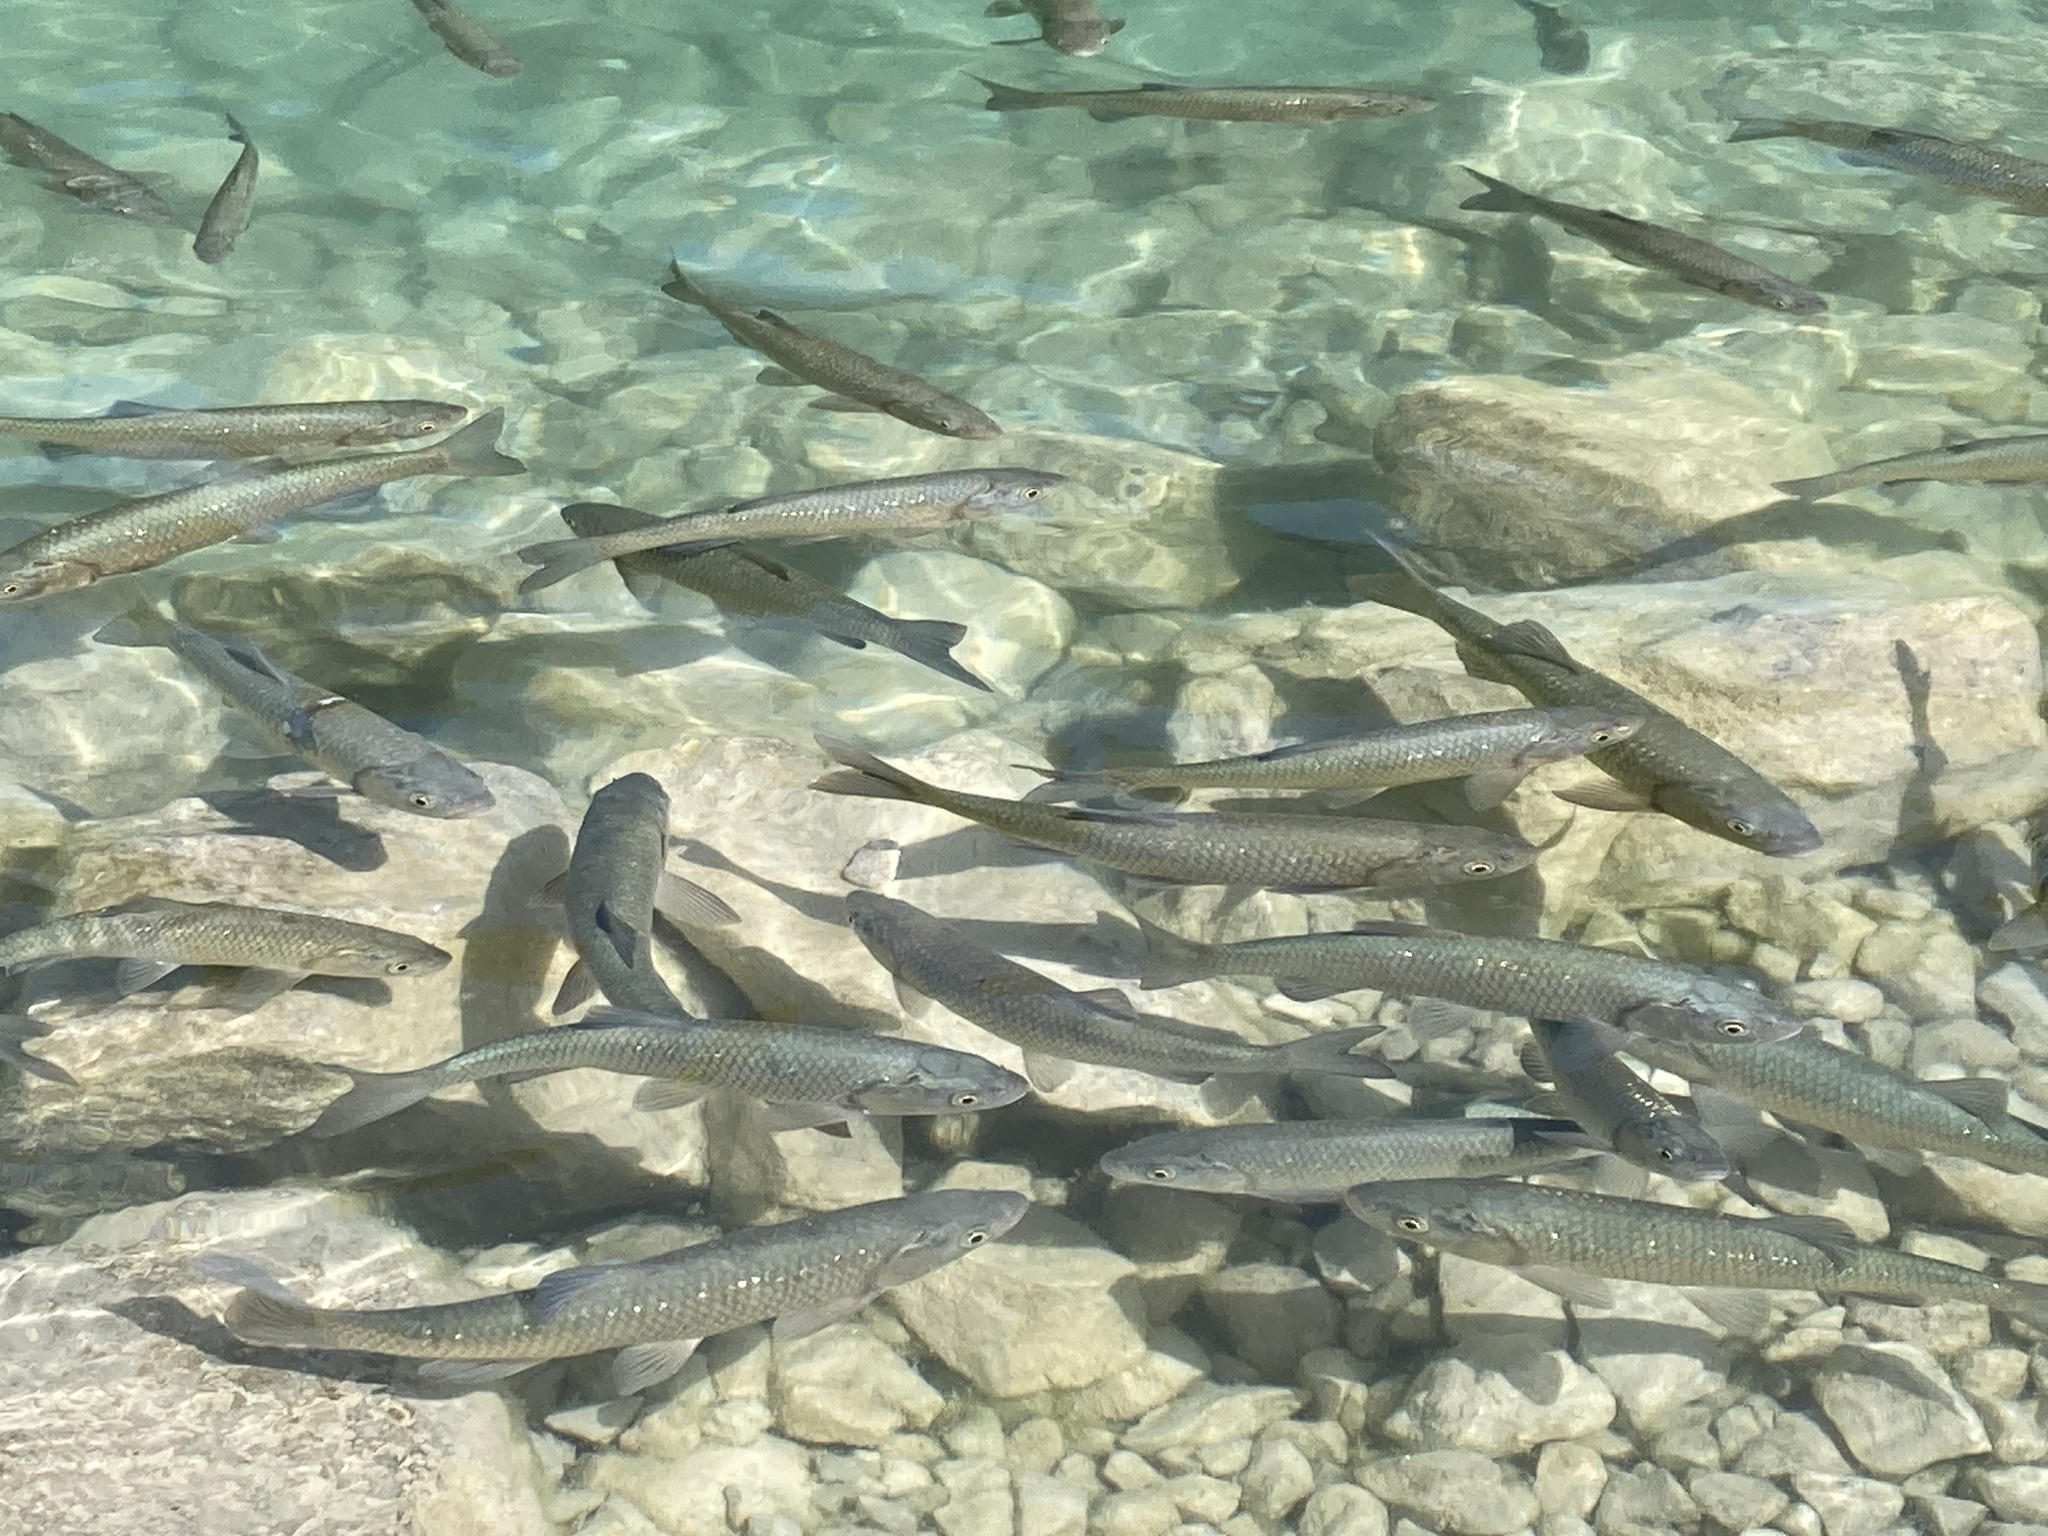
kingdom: Animalia
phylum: Chordata
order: Cypriniformes
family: Cyprinidae
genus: Squalius
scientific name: Squalius squalus
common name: Italian chub
